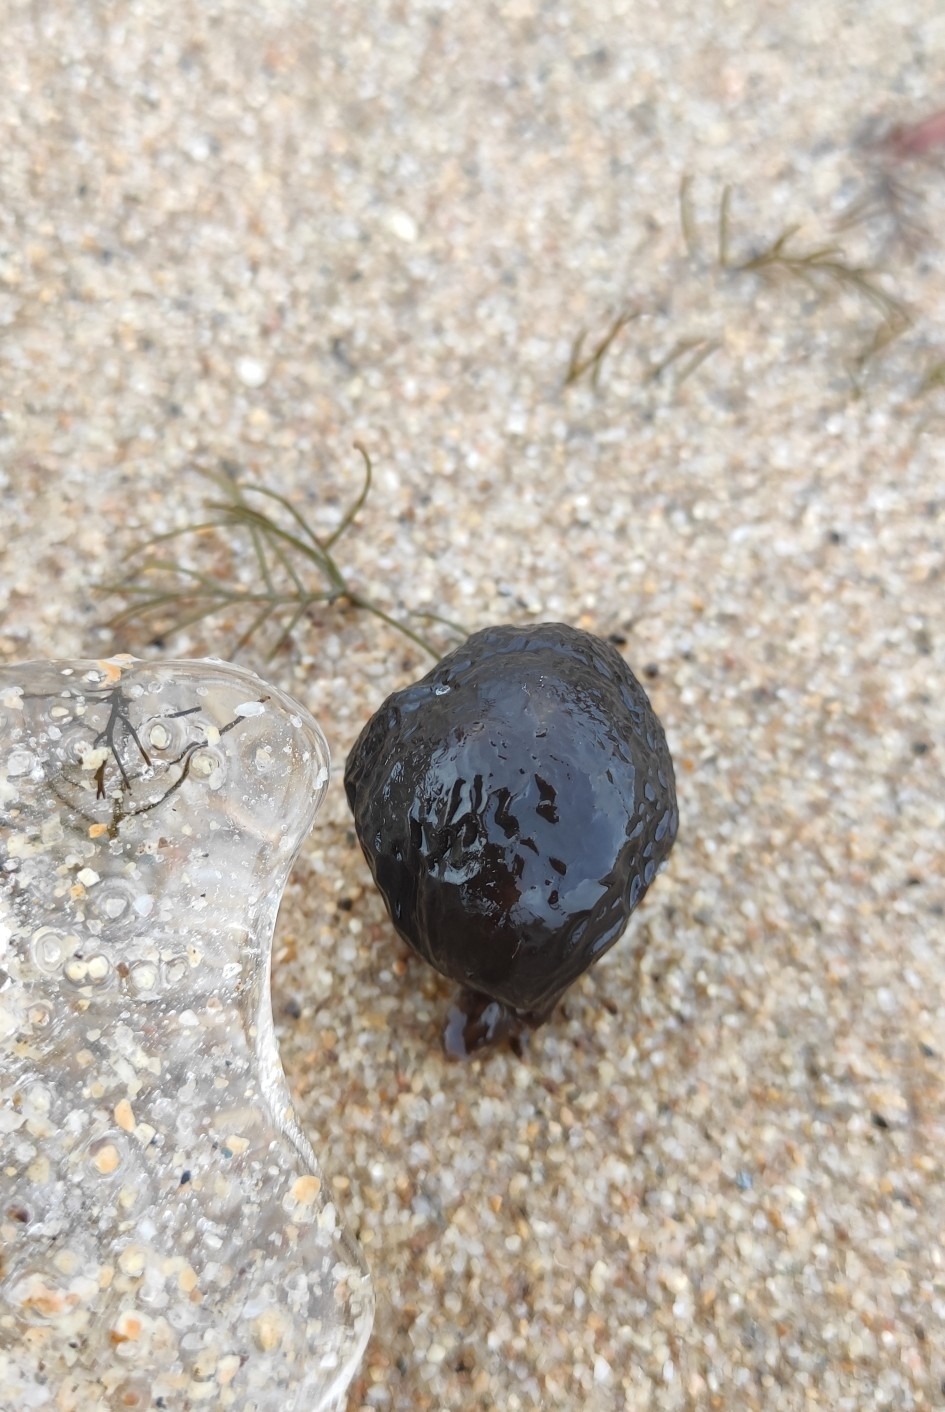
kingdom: Bacteria
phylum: Cyanobacteria
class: Cyanobacteriia
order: Cyanobacteriales
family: Nostocaceae
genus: Nostoc
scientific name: Nostoc pruniforme
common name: Mare's eggs
